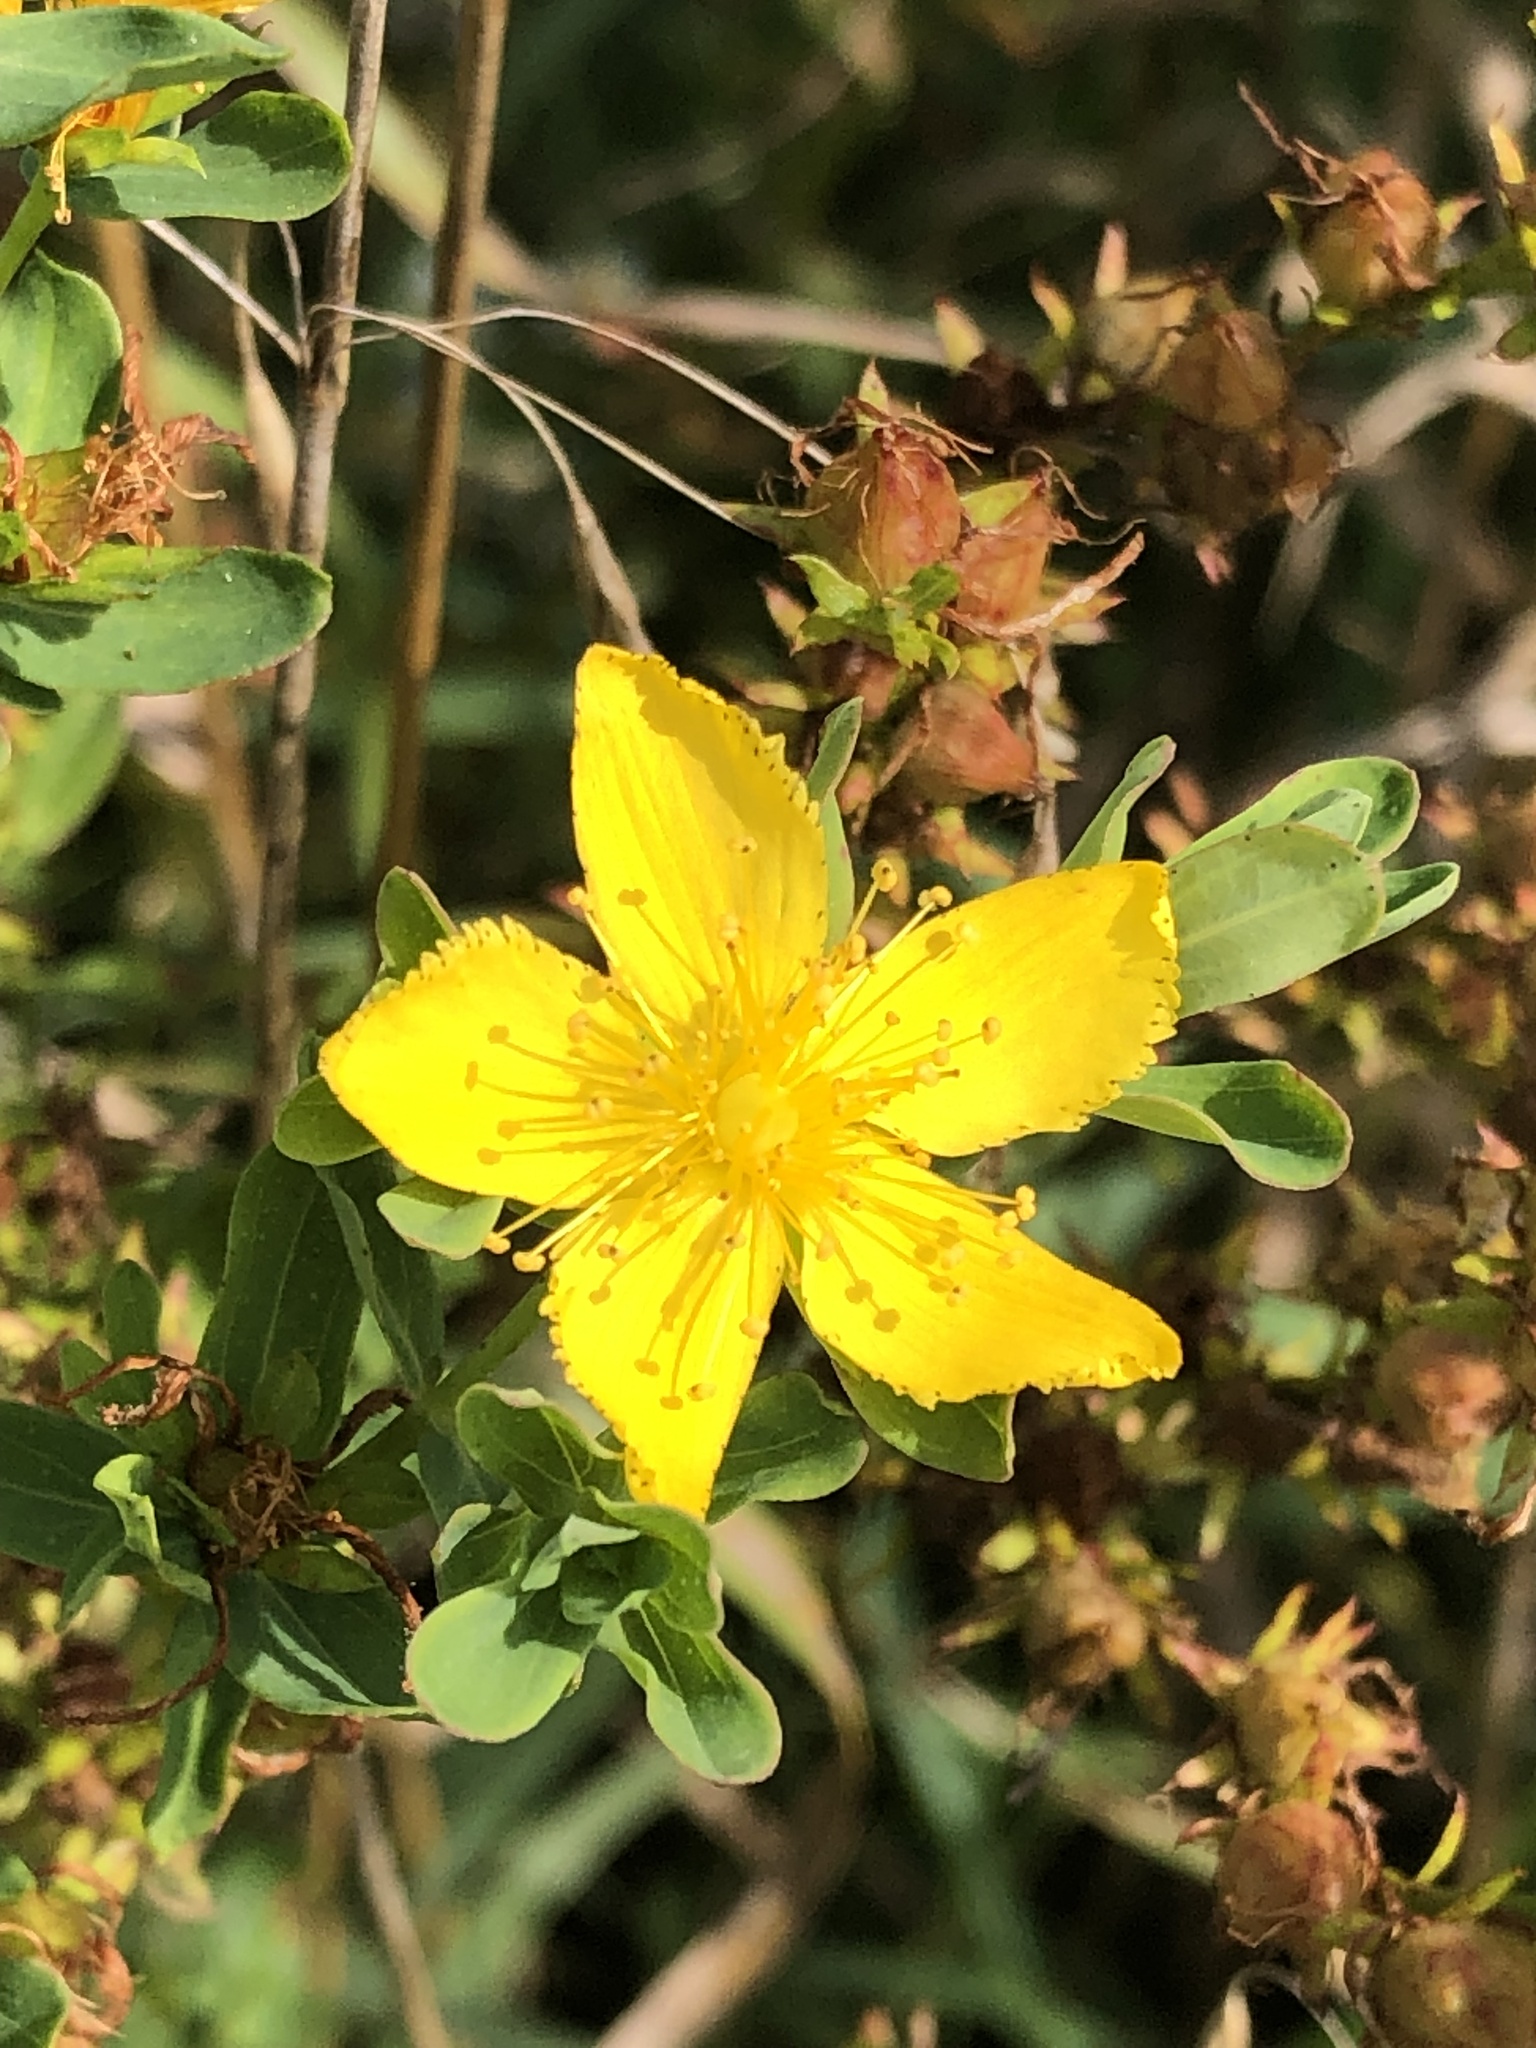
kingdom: Plantae
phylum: Tracheophyta
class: Magnoliopsida
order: Malpighiales
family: Hypericaceae
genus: Hypericum
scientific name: Hypericum perforatum
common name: Common st. johnswort
